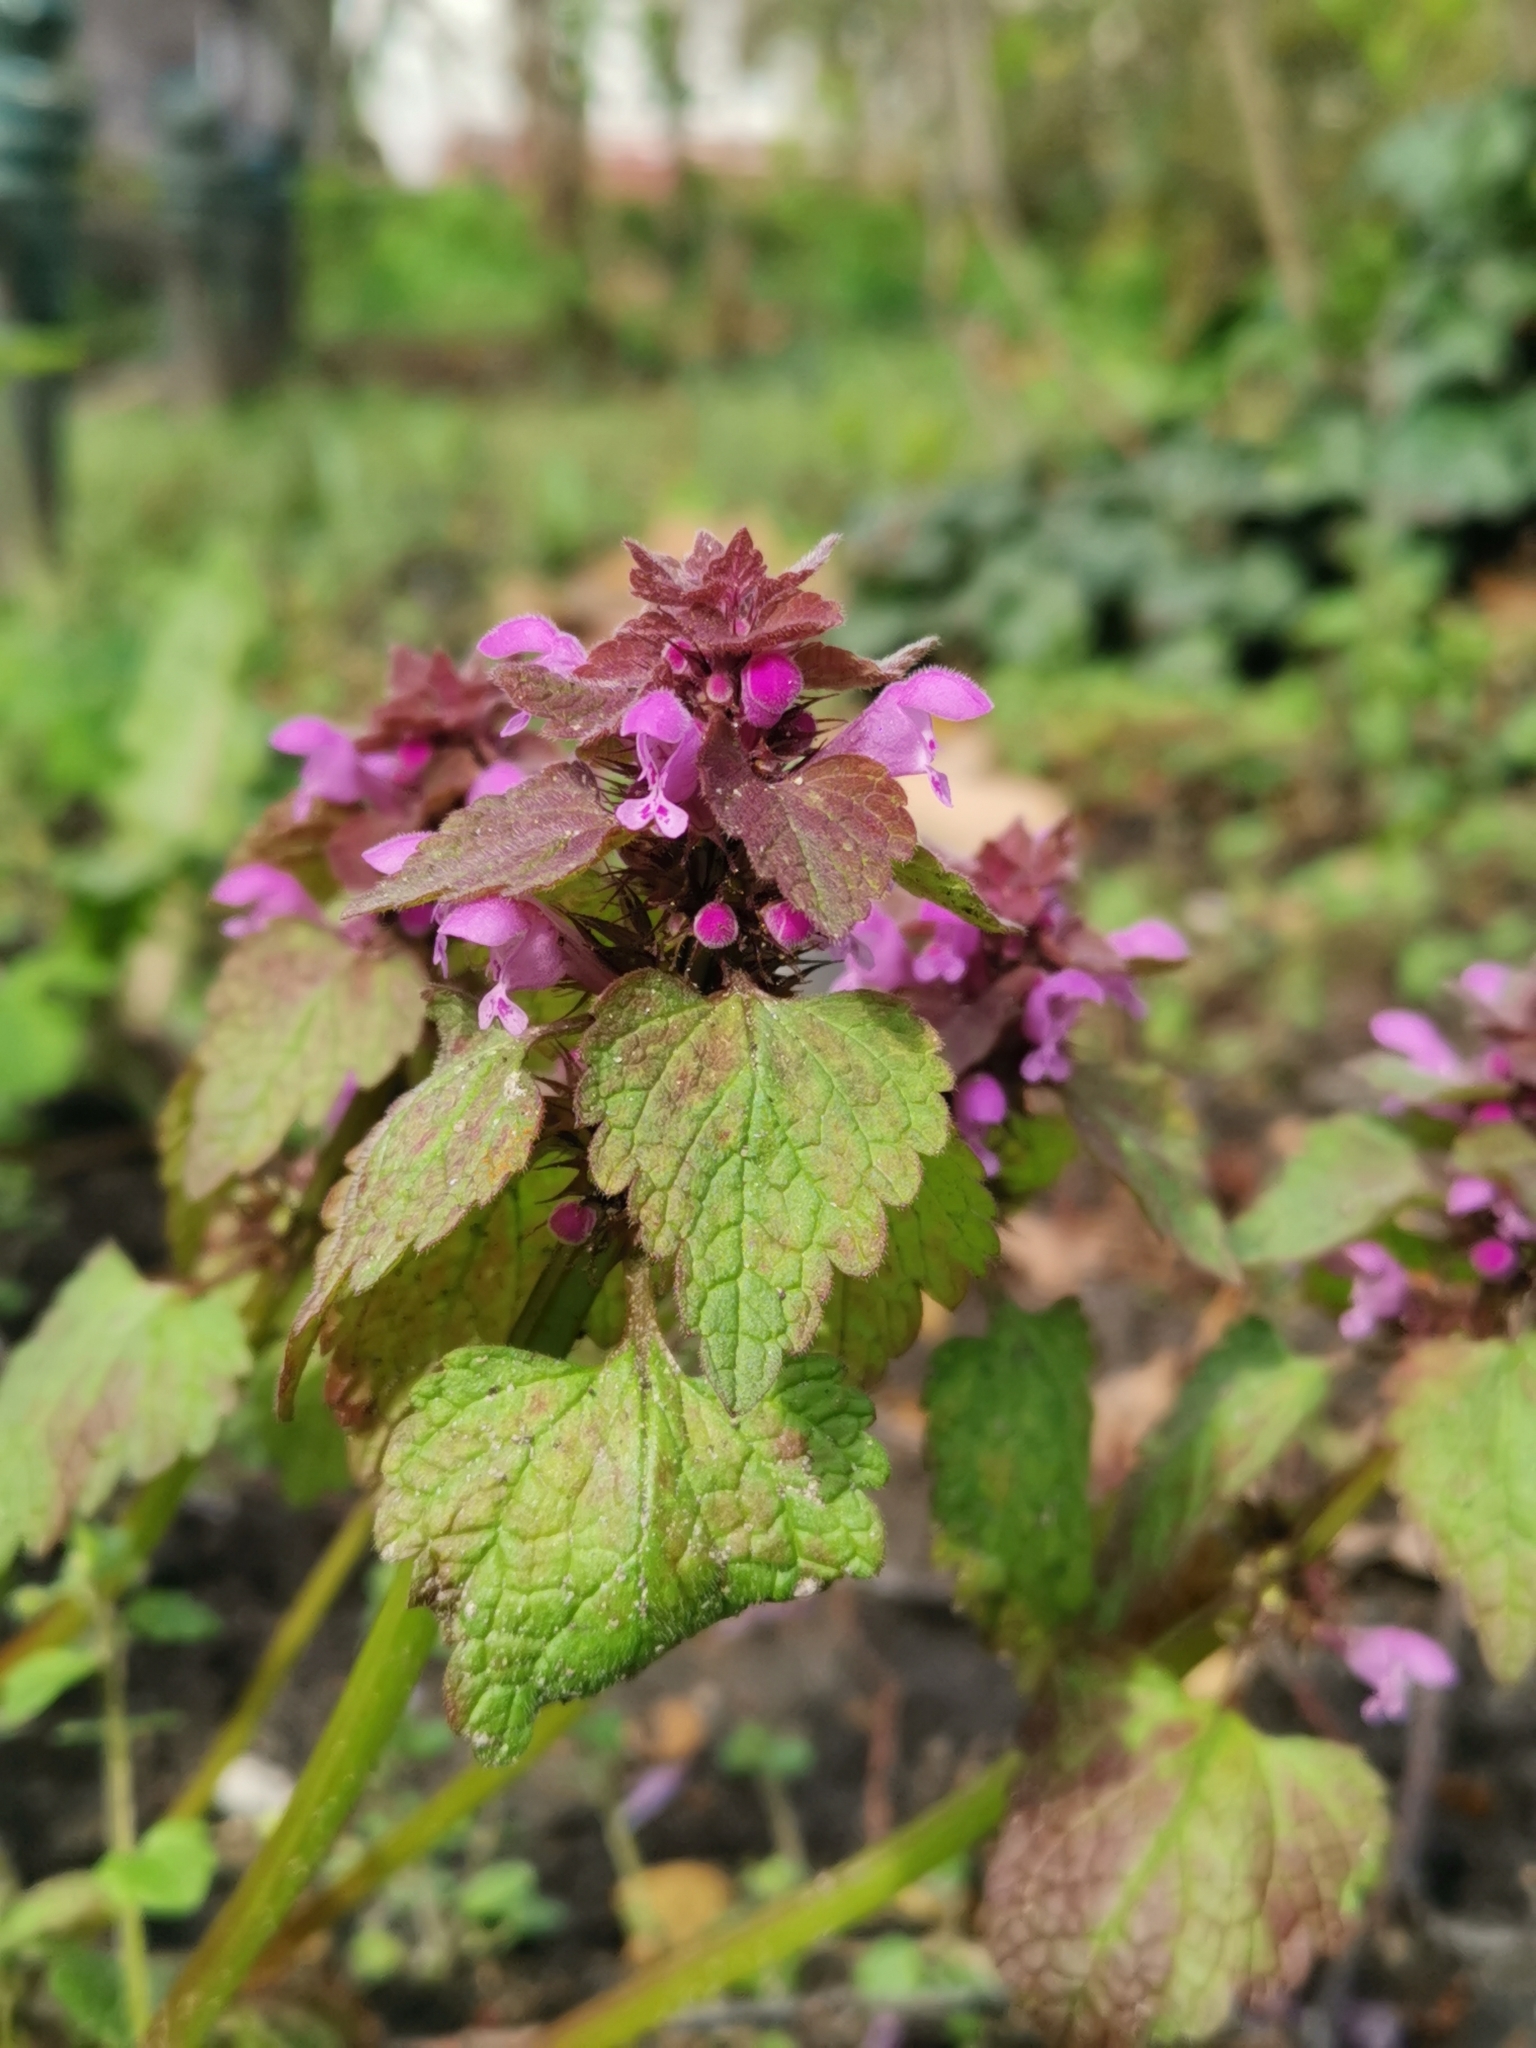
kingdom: Plantae
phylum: Tracheophyta
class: Magnoliopsida
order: Lamiales
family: Lamiaceae
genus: Lamium
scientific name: Lamium purpureum
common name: Red dead-nettle
